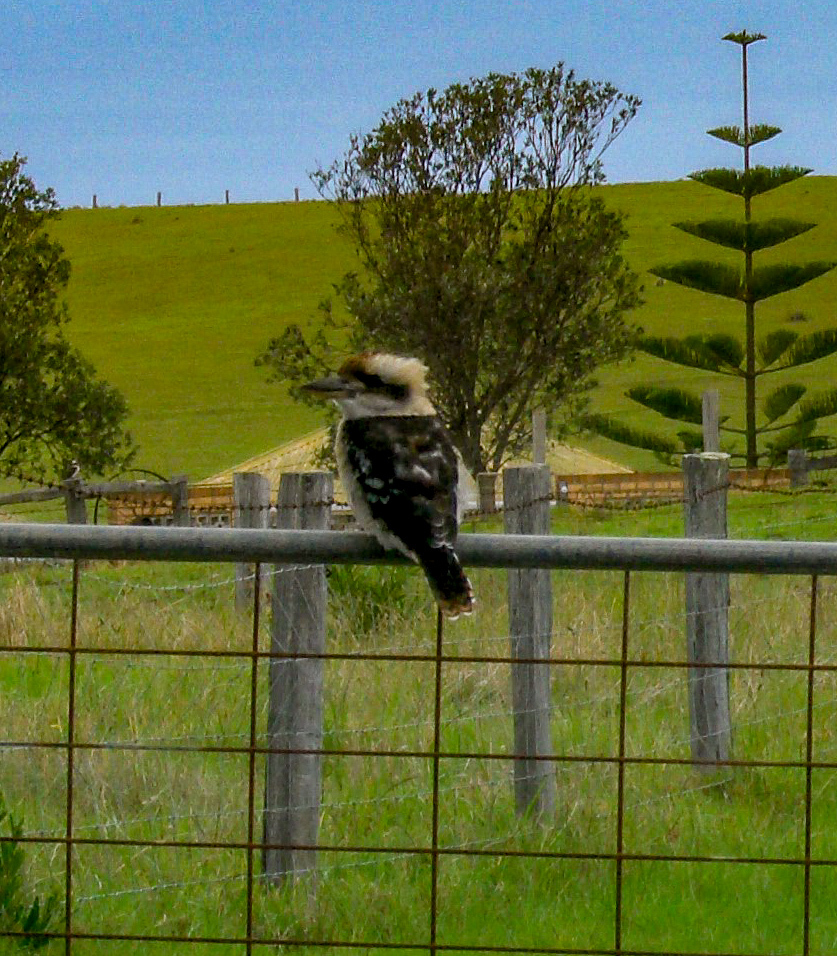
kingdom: Animalia
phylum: Chordata
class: Aves
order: Coraciiformes
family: Alcedinidae
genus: Dacelo
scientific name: Dacelo novaeguineae
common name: Laughing kookaburra
